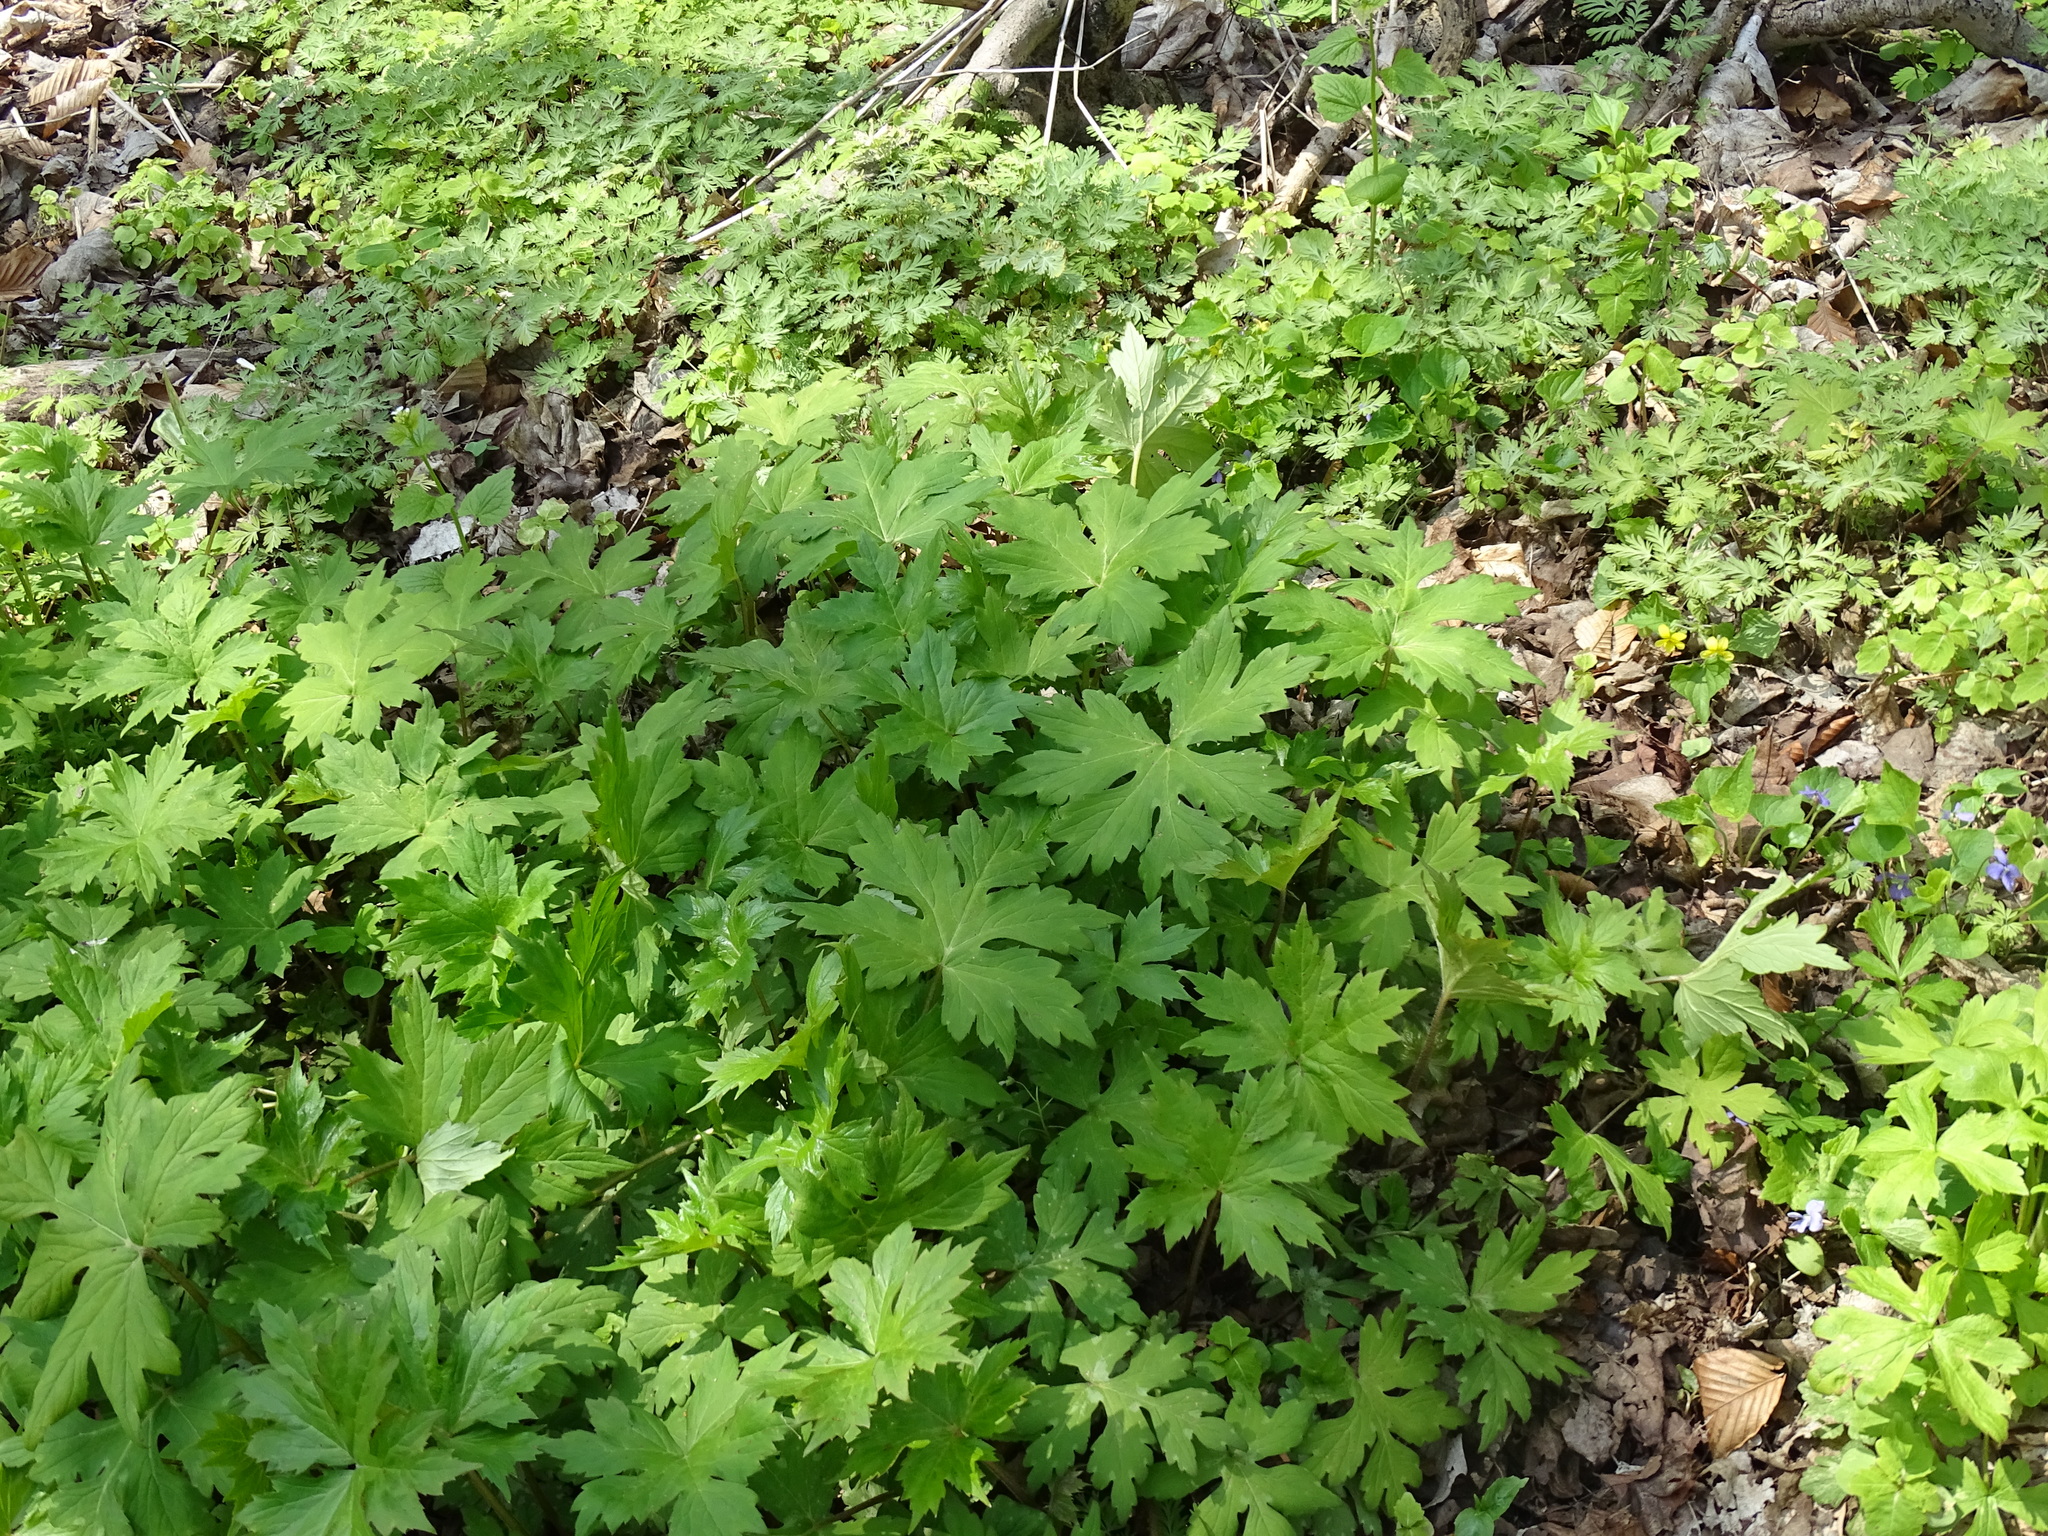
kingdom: Plantae
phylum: Tracheophyta
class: Magnoliopsida
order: Boraginales
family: Hydrophyllaceae
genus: Hydrophyllum
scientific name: Hydrophyllum canadense
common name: Canada waterleaf
